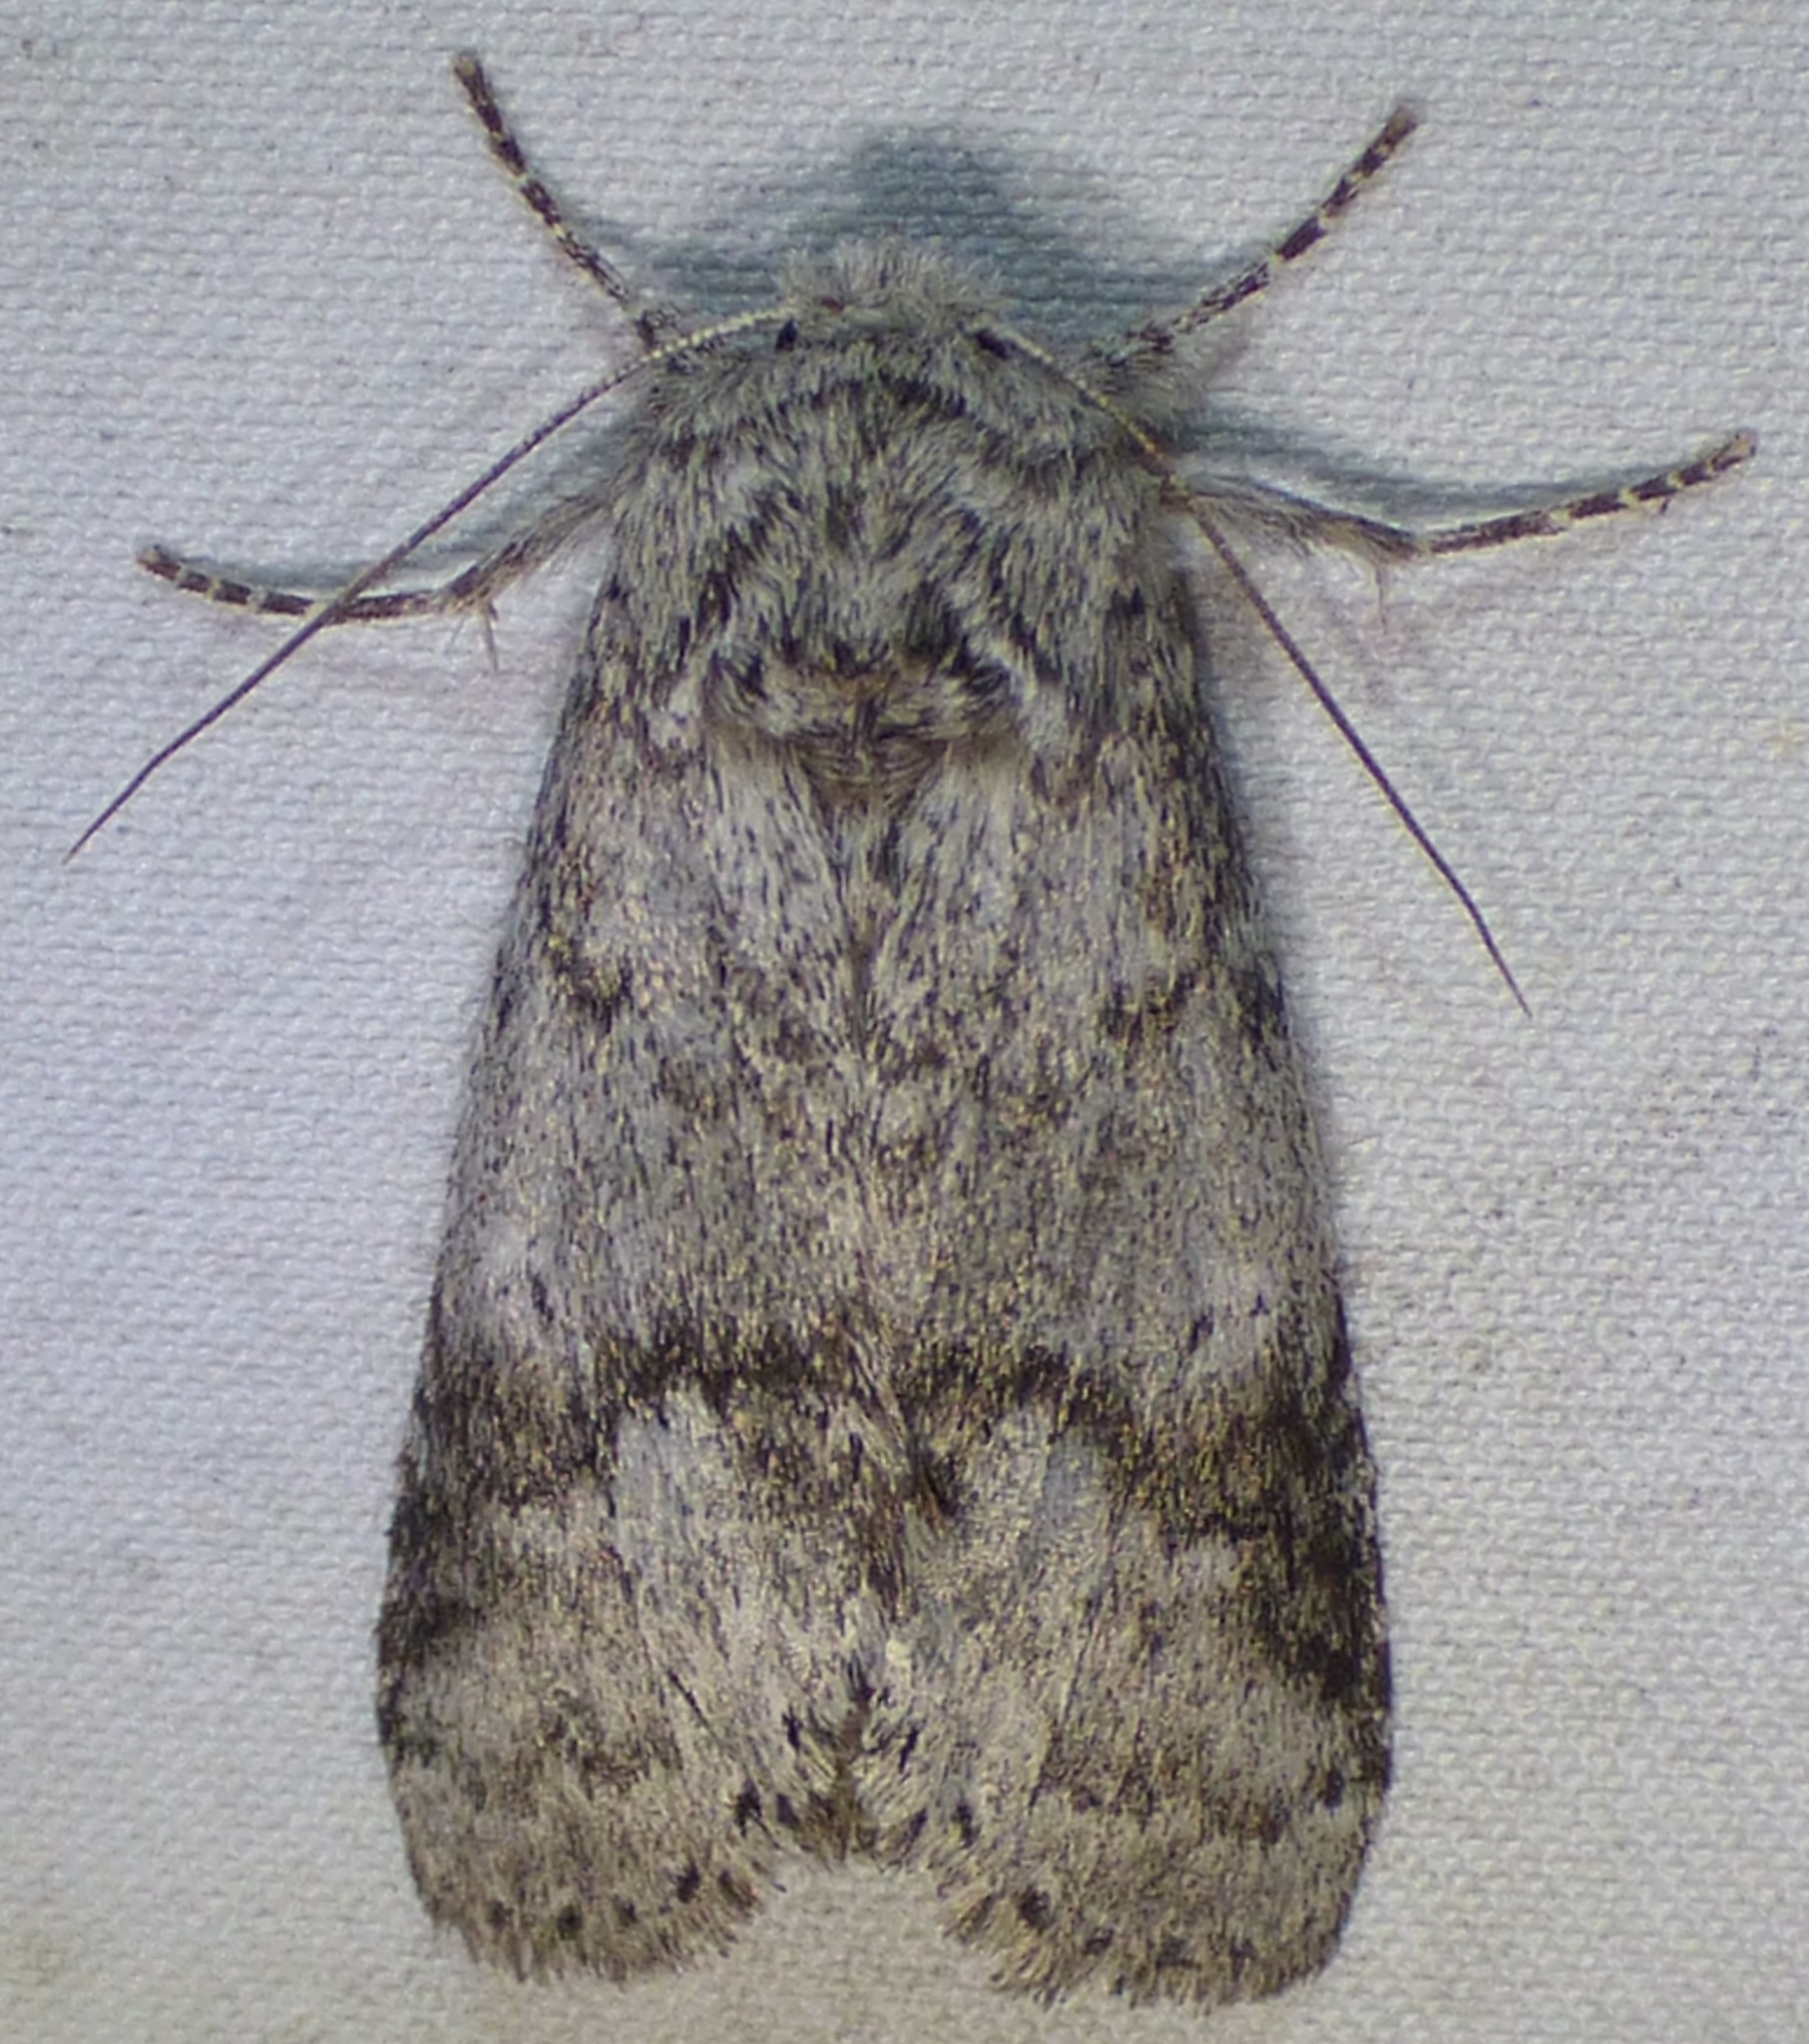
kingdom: Animalia
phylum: Arthropoda
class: Insecta
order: Lepidoptera
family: Notodontidae
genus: Lochmaeus
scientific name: Lochmaeus bilineata
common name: Double-lined prominent
